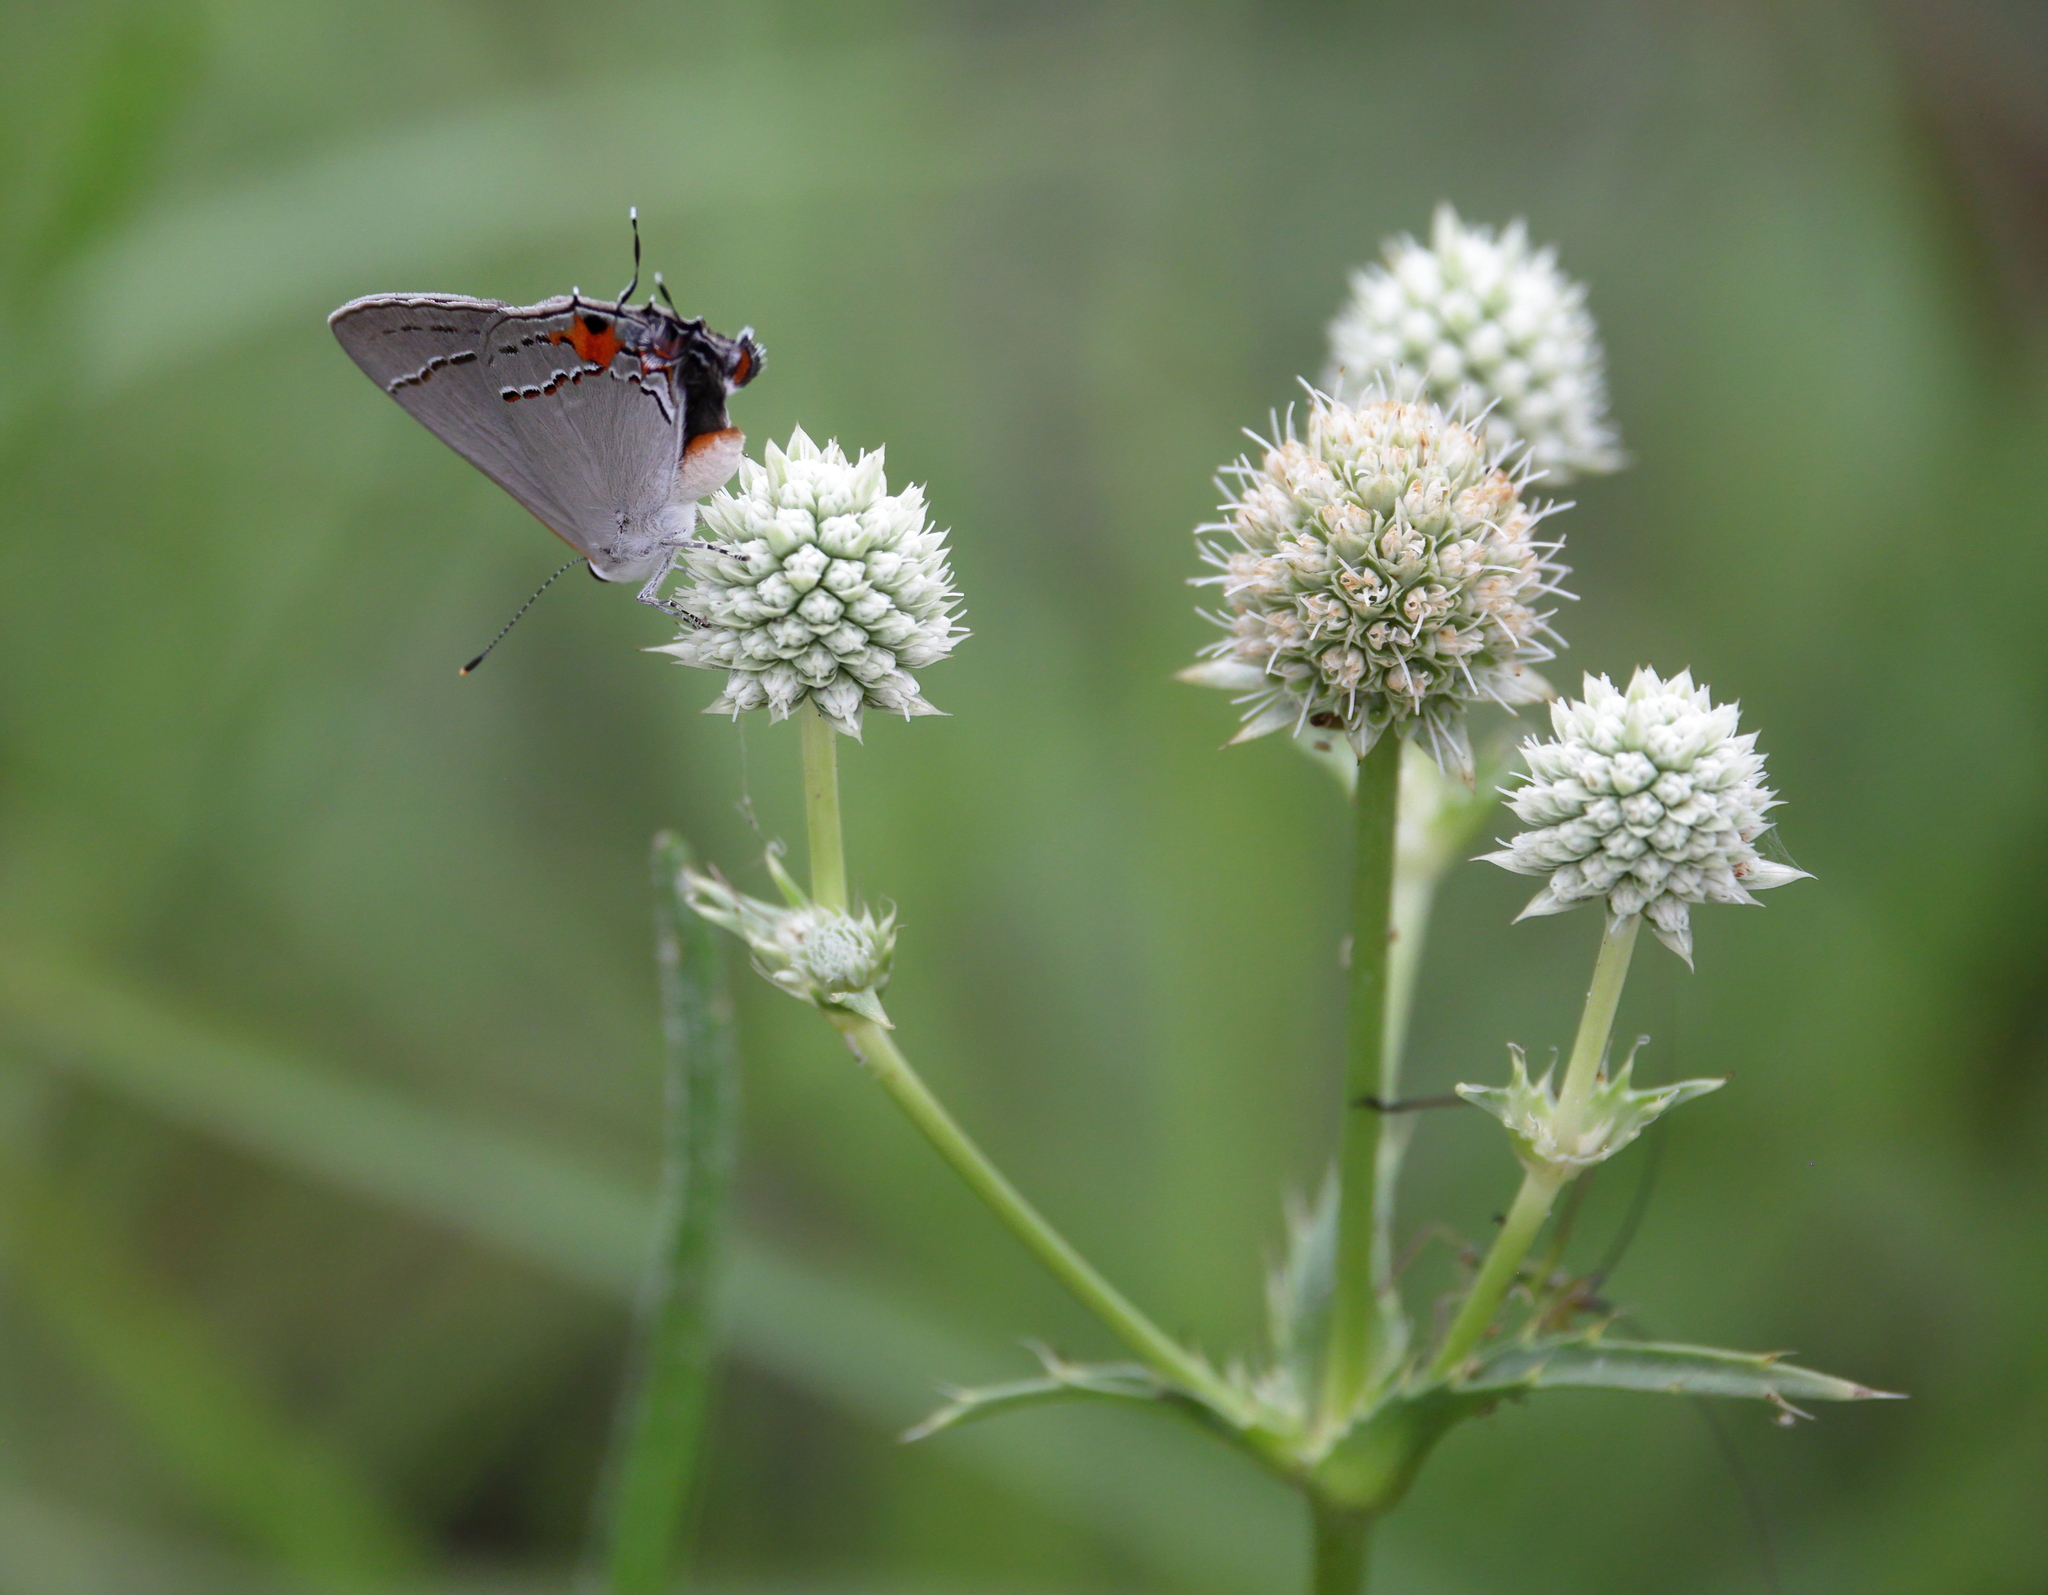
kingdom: Animalia
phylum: Arthropoda
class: Insecta
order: Lepidoptera
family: Lycaenidae
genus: Strymon
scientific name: Strymon melinus
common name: Gray hairstreak
